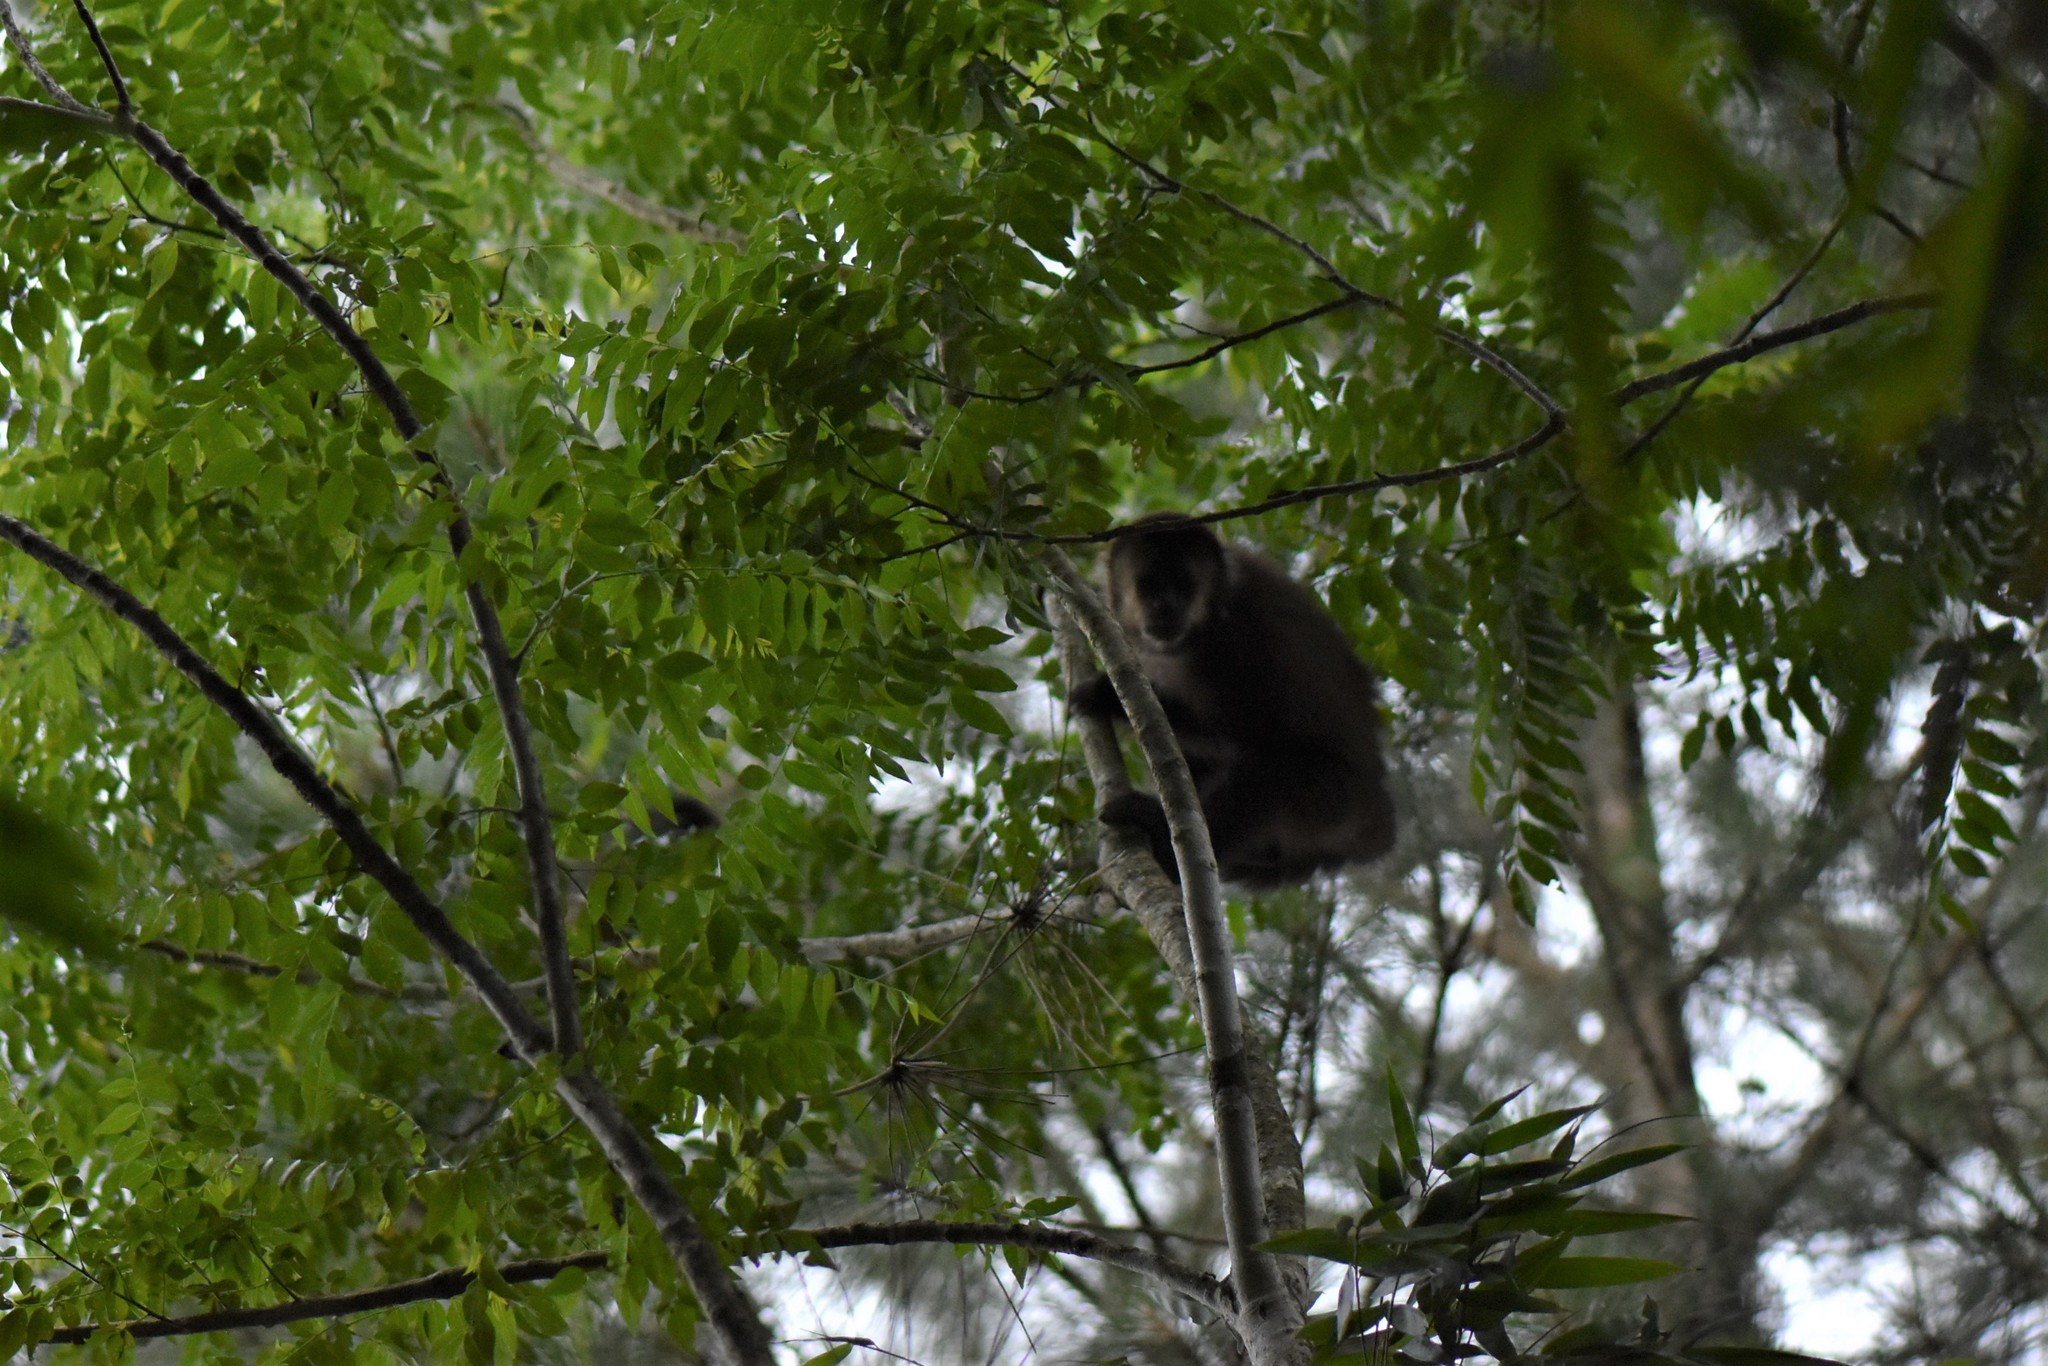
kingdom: Animalia
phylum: Chordata
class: Mammalia
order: Primates
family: Cebidae
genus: Sapajus
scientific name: Sapajus nigritus
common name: Black capuchin
